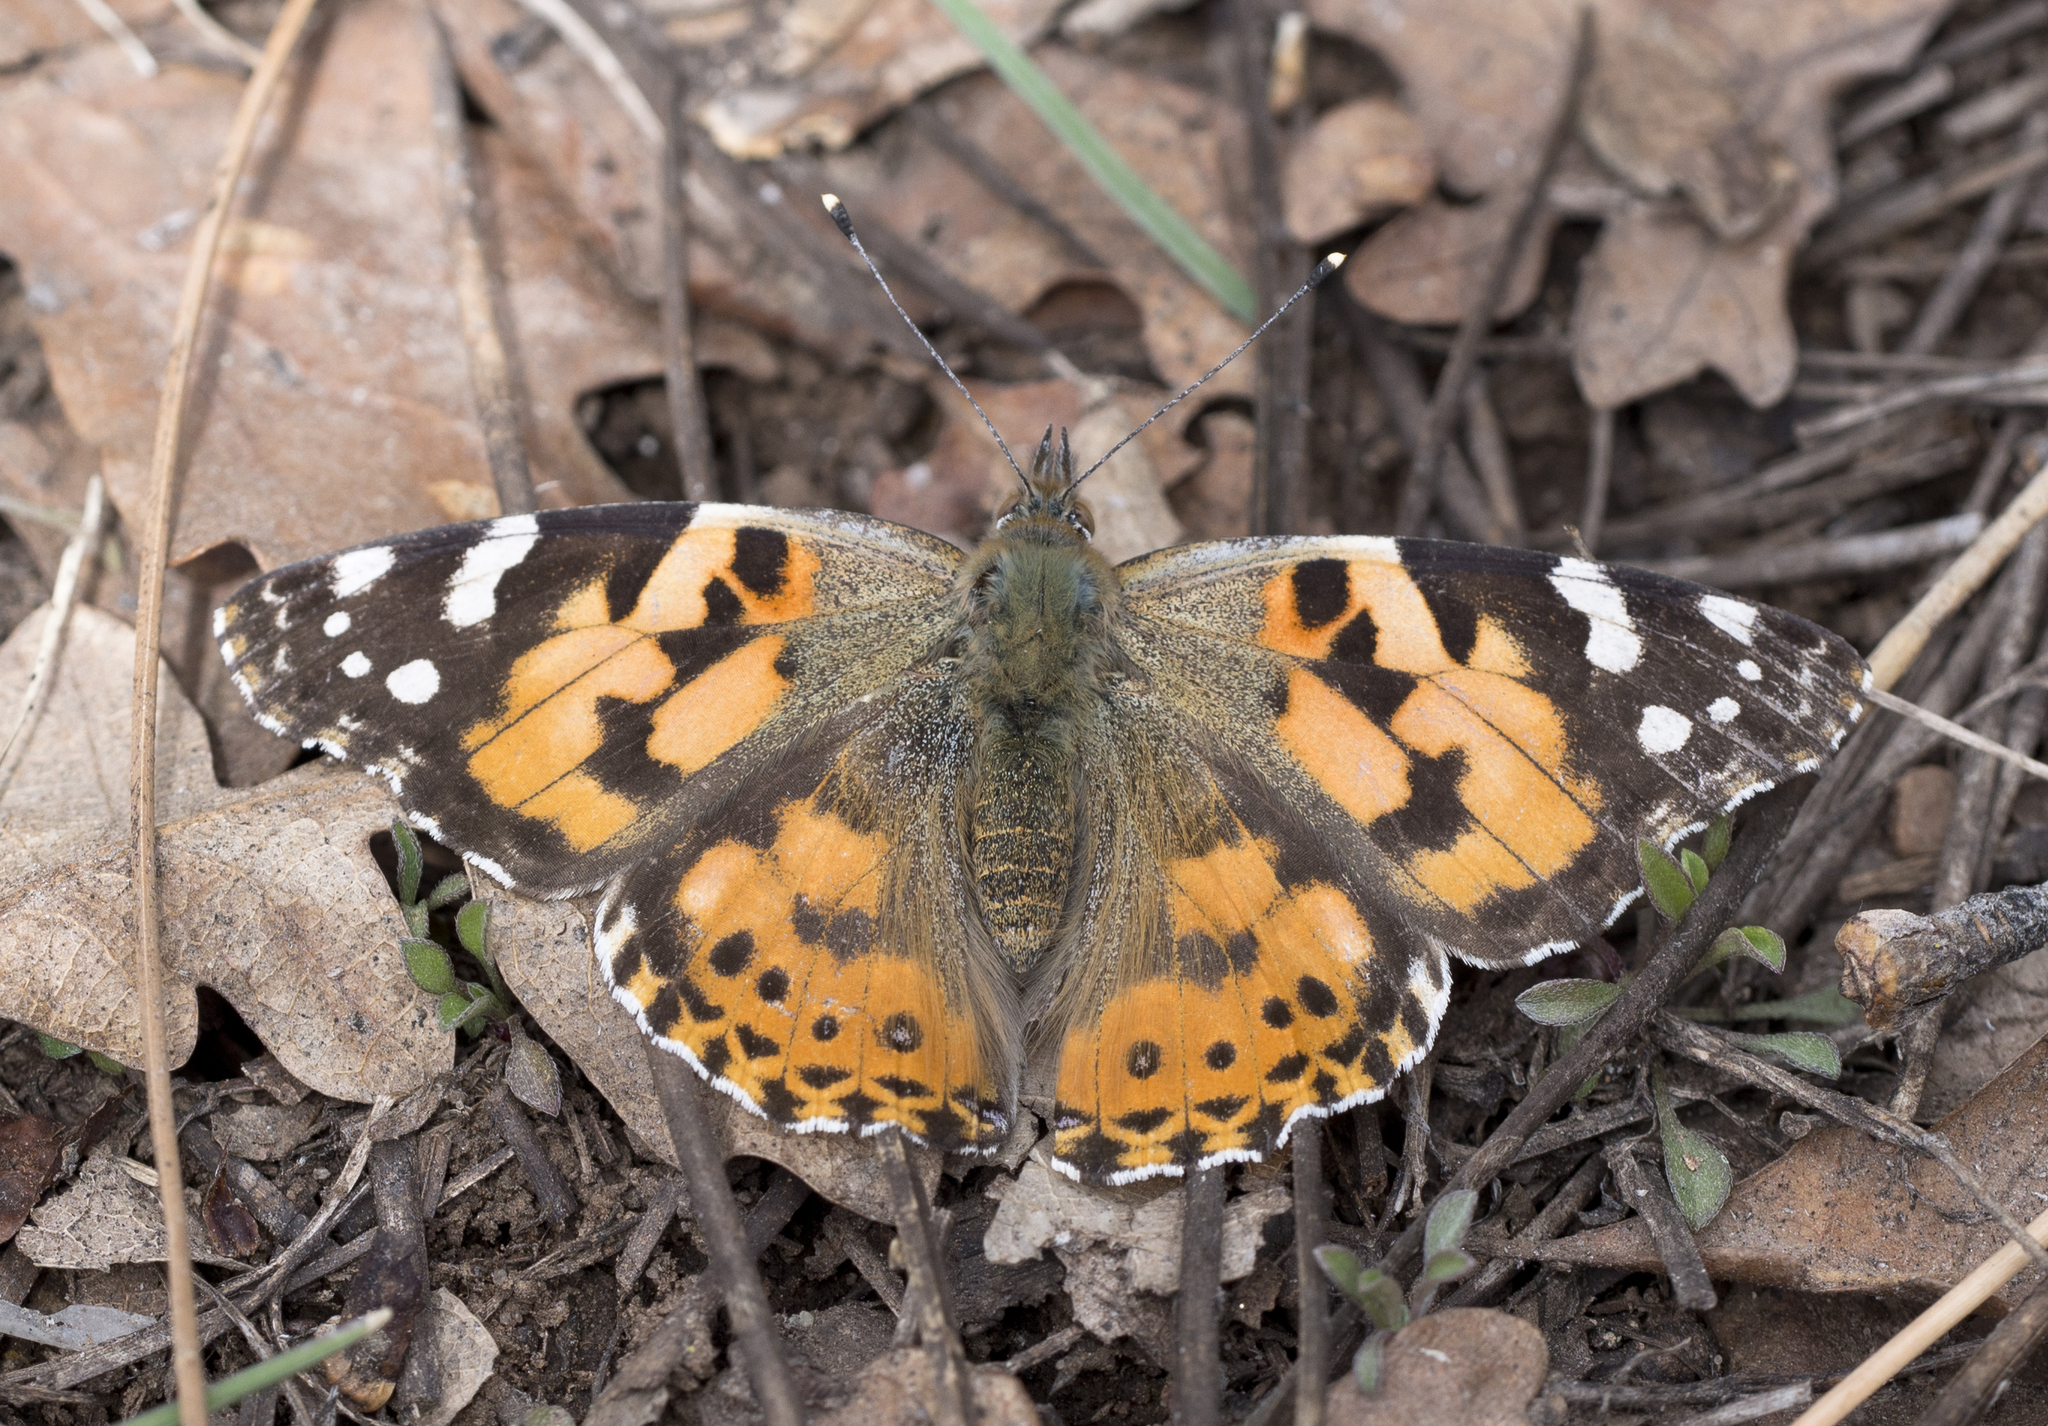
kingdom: Animalia
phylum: Arthropoda
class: Insecta
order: Lepidoptera
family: Nymphalidae
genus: Vanessa
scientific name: Vanessa cardui
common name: Painted lady
